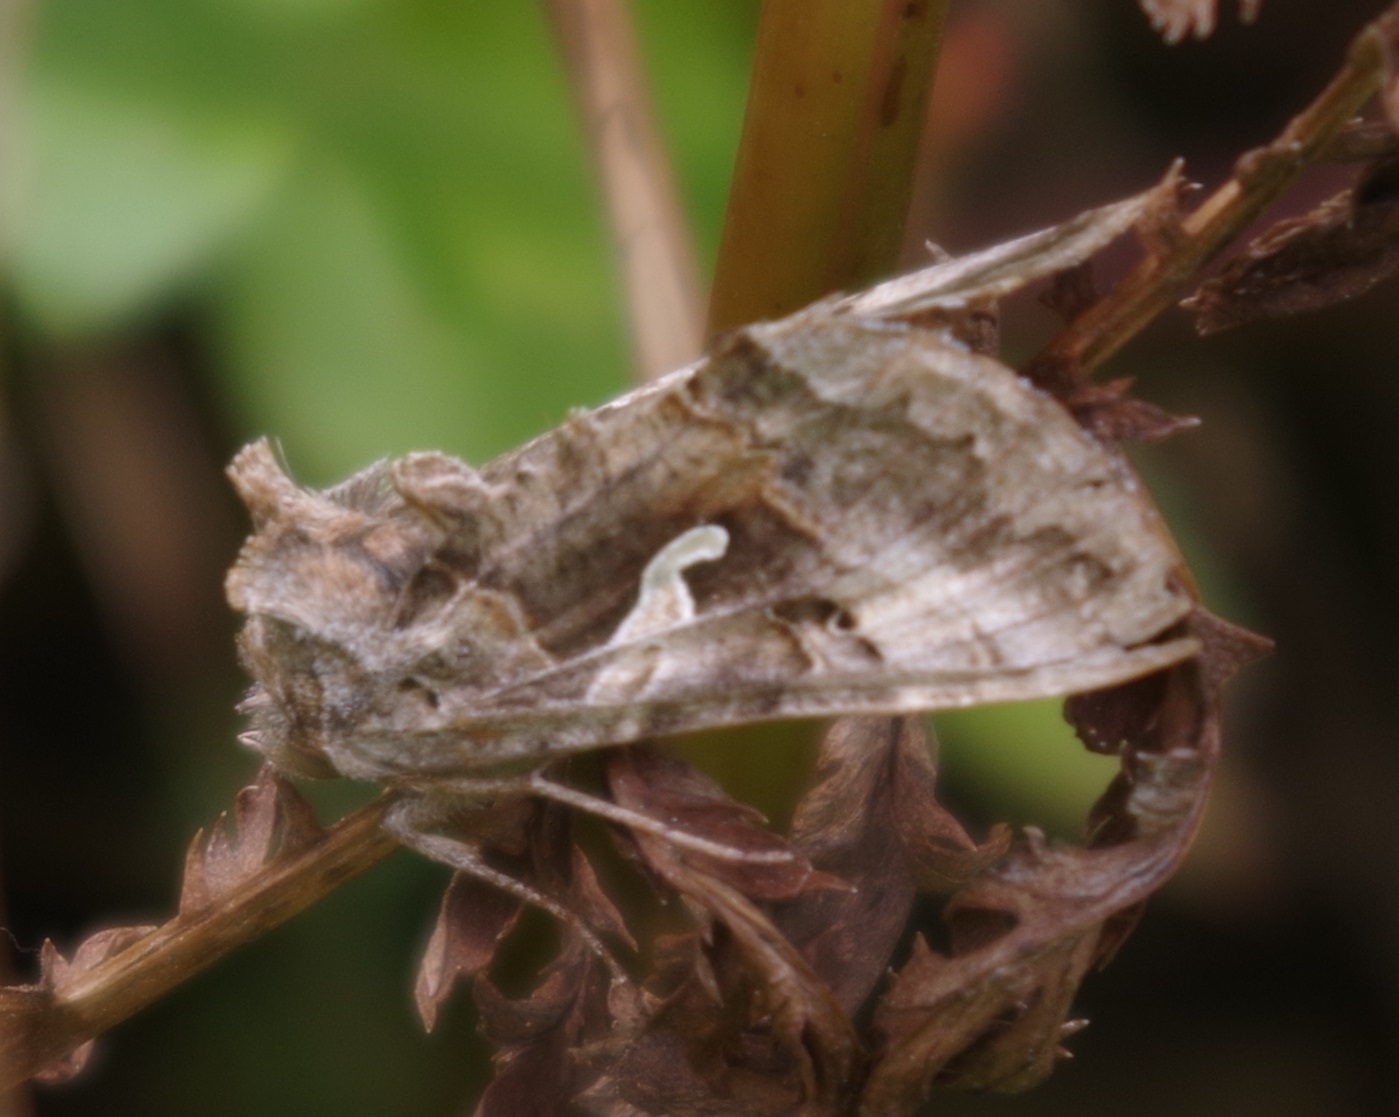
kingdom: Animalia
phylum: Arthropoda
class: Insecta
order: Lepidoptera
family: Noctuidae
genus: Autographa
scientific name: Autographa gamma
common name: Silver y
